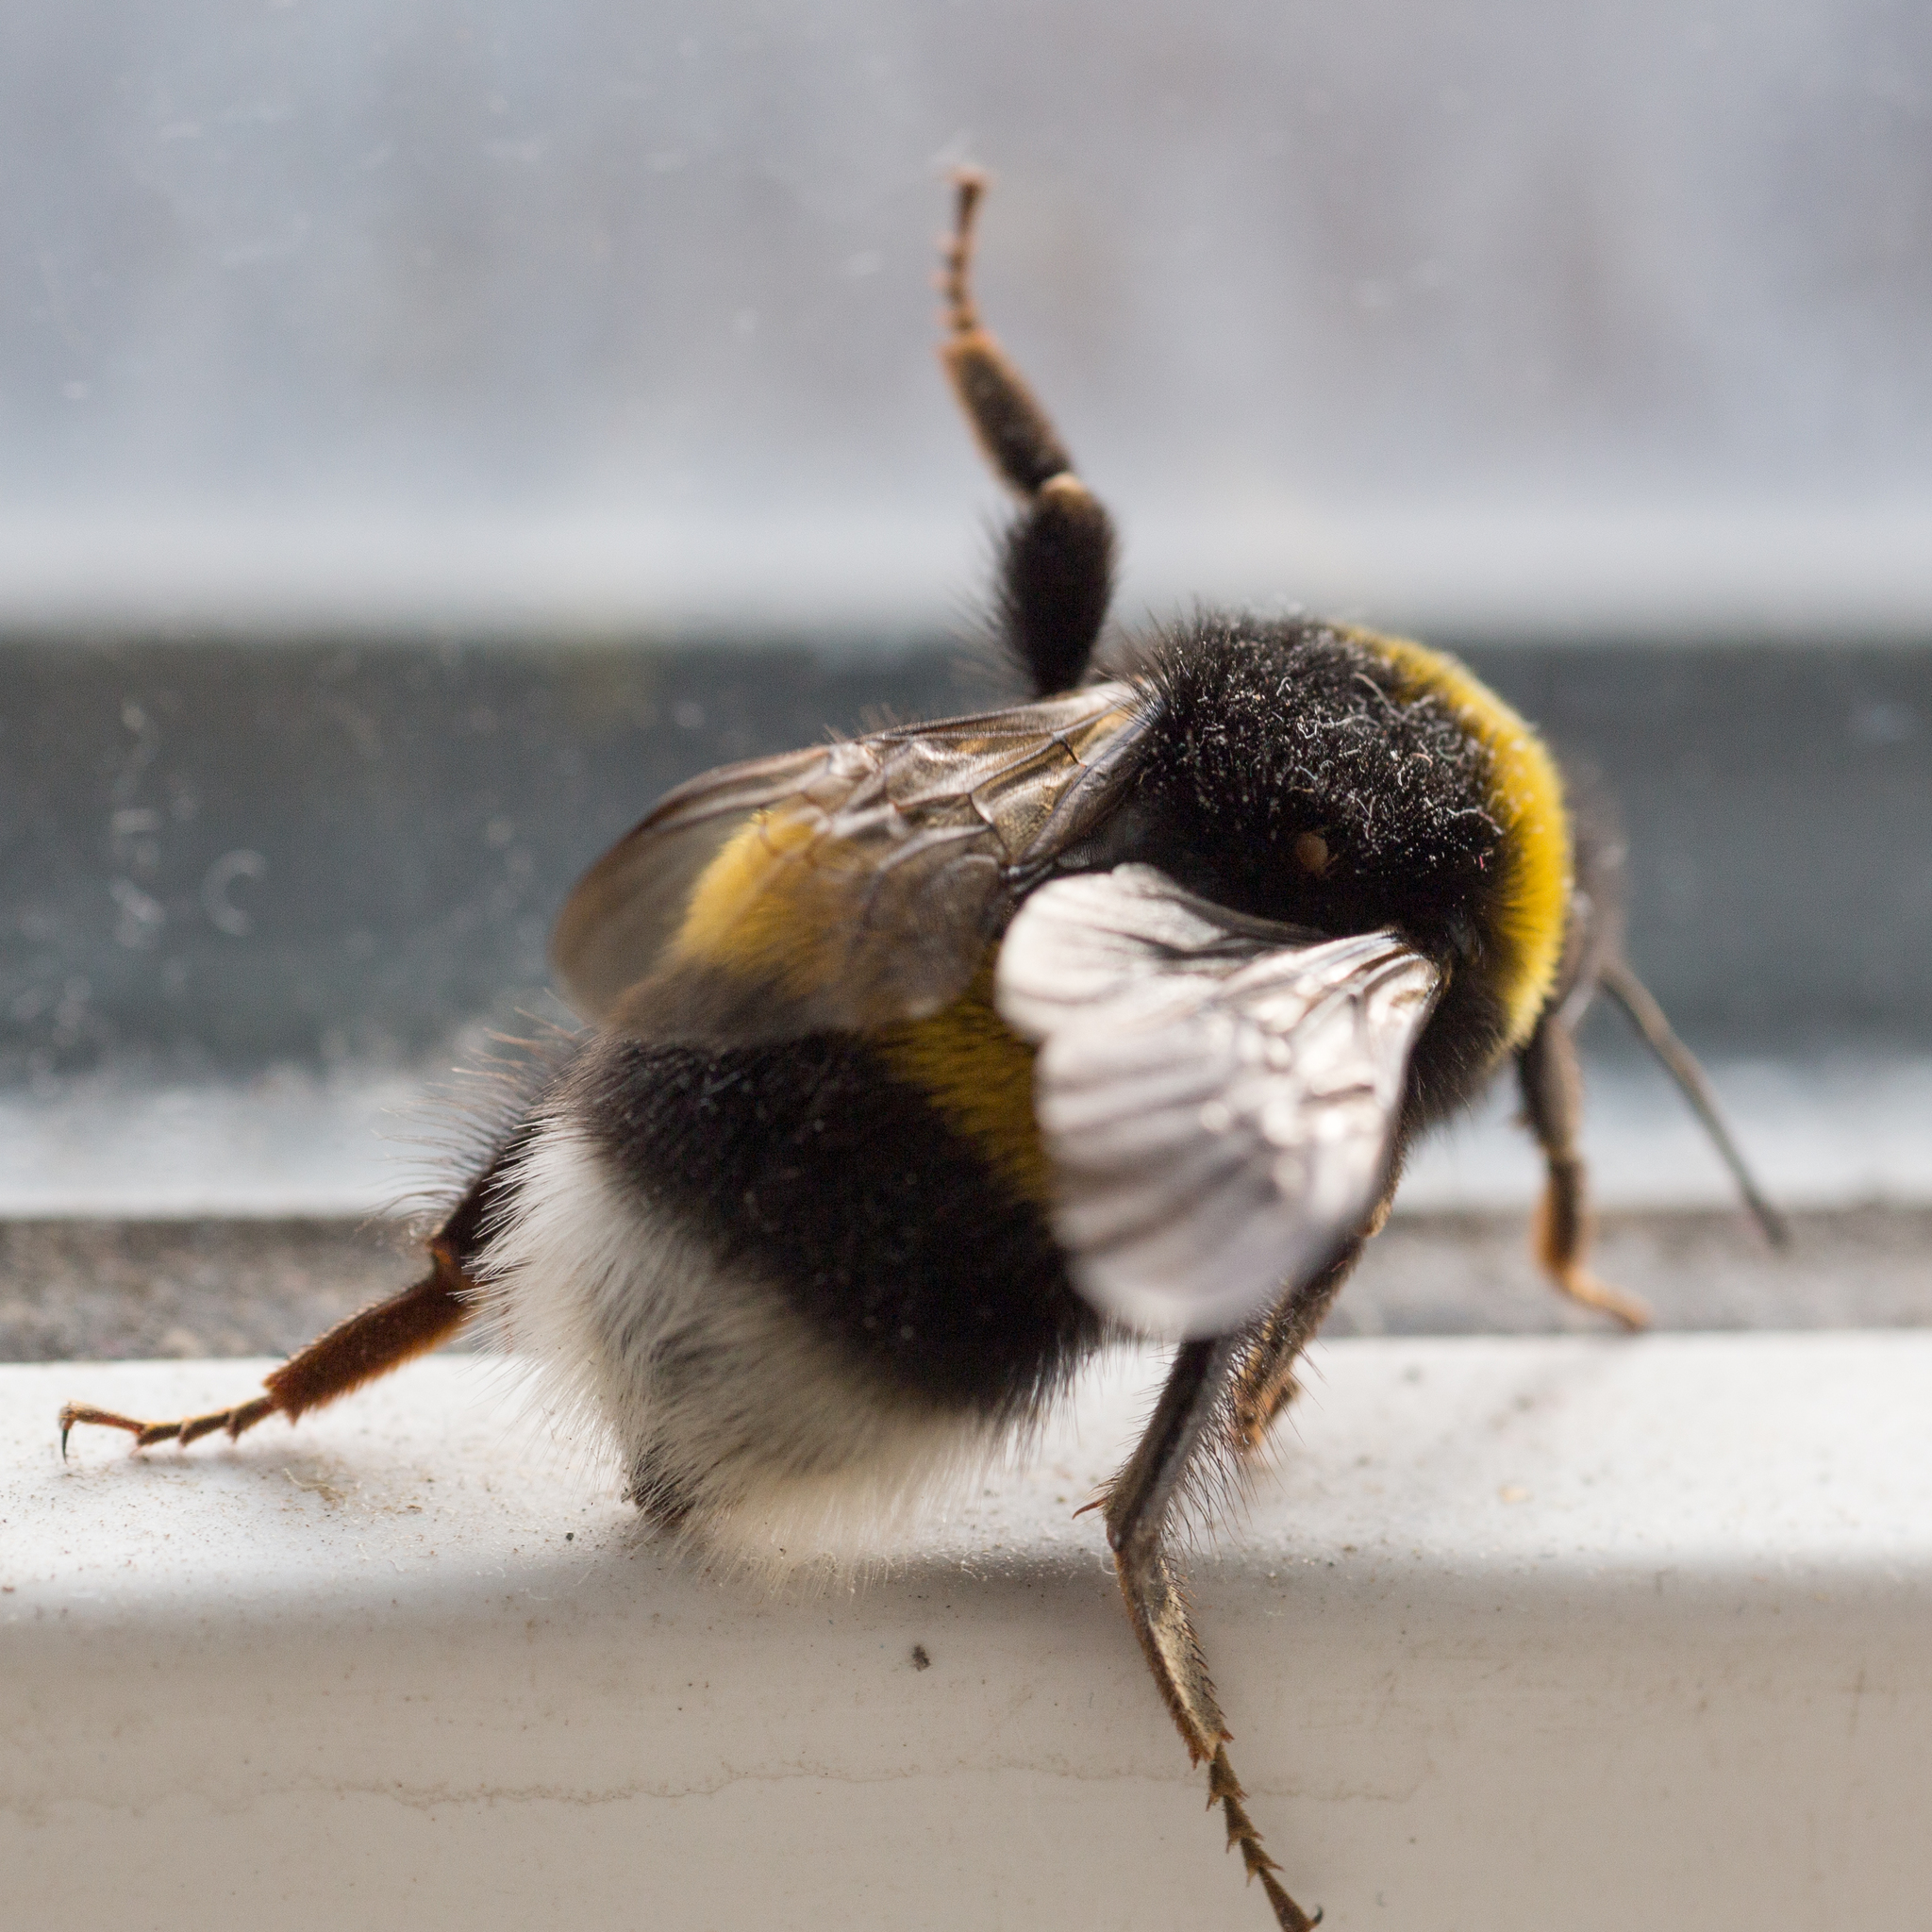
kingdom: Animalia
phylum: Arthropoda
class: Insecta
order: Hymenoptera
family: Apidae
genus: Bombus
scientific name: Bombus
